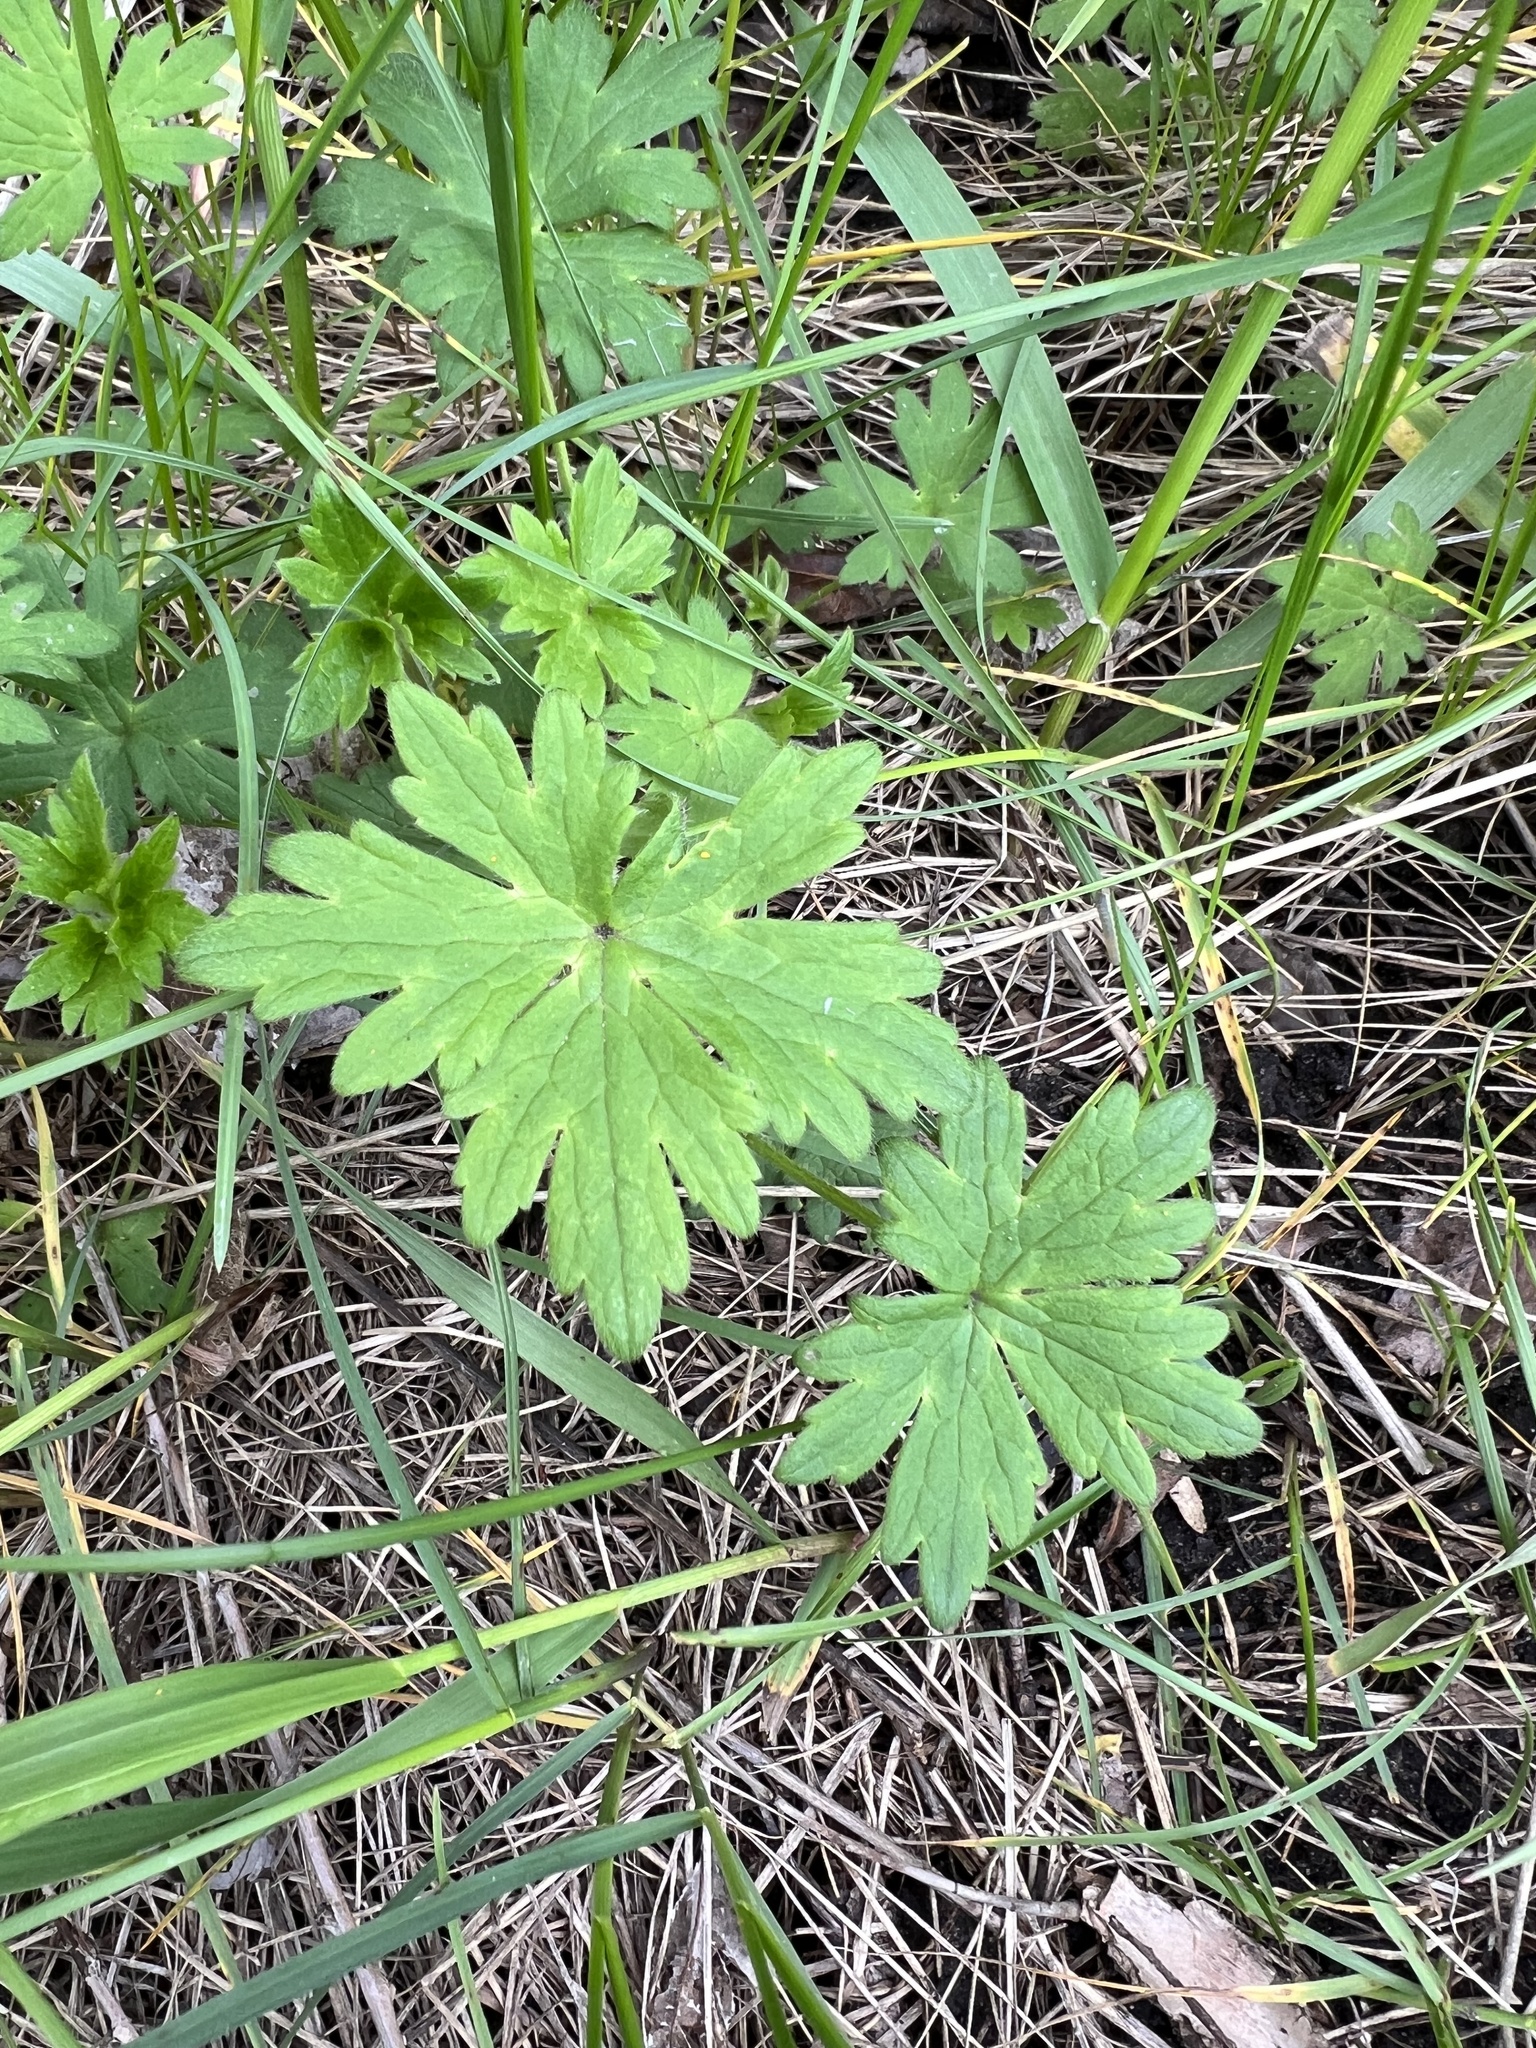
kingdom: Plantae
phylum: Tracheophyta
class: Magnoliopsida
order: Geraniales
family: Geraniaceae
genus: Geranium
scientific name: Geranium caespitosum
